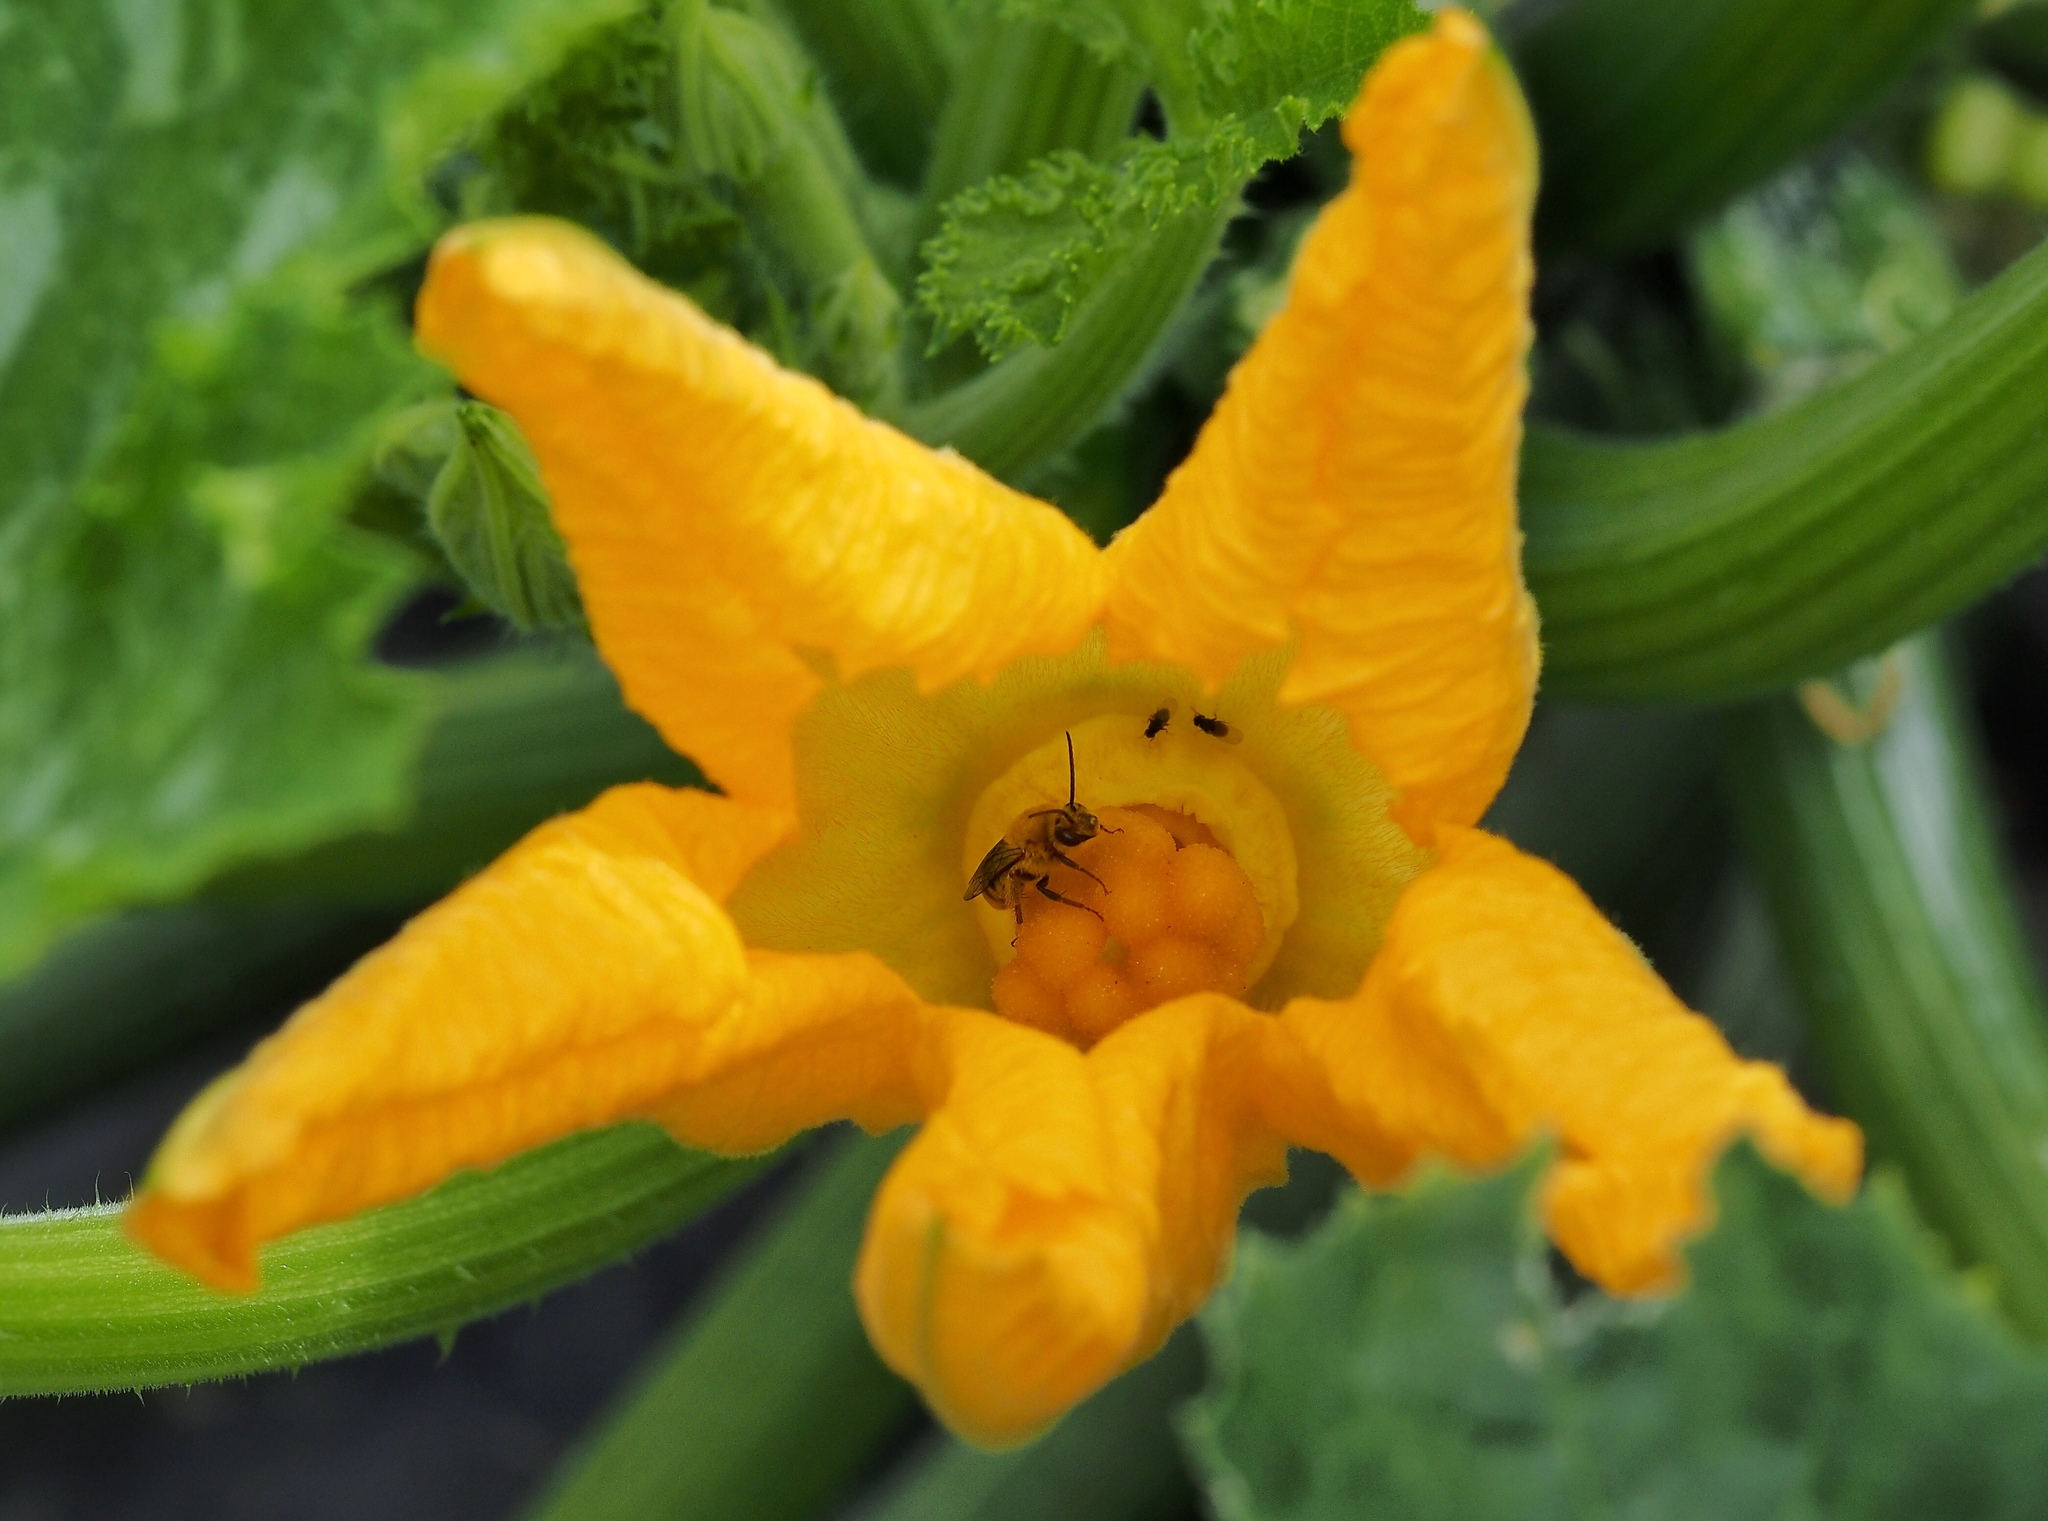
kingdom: Animalia
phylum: Arthropoda
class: Insecta
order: Hymenoptera
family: Apidae
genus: Peponapis
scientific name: Peponapis pruinosa
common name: Pruinose squash bee
